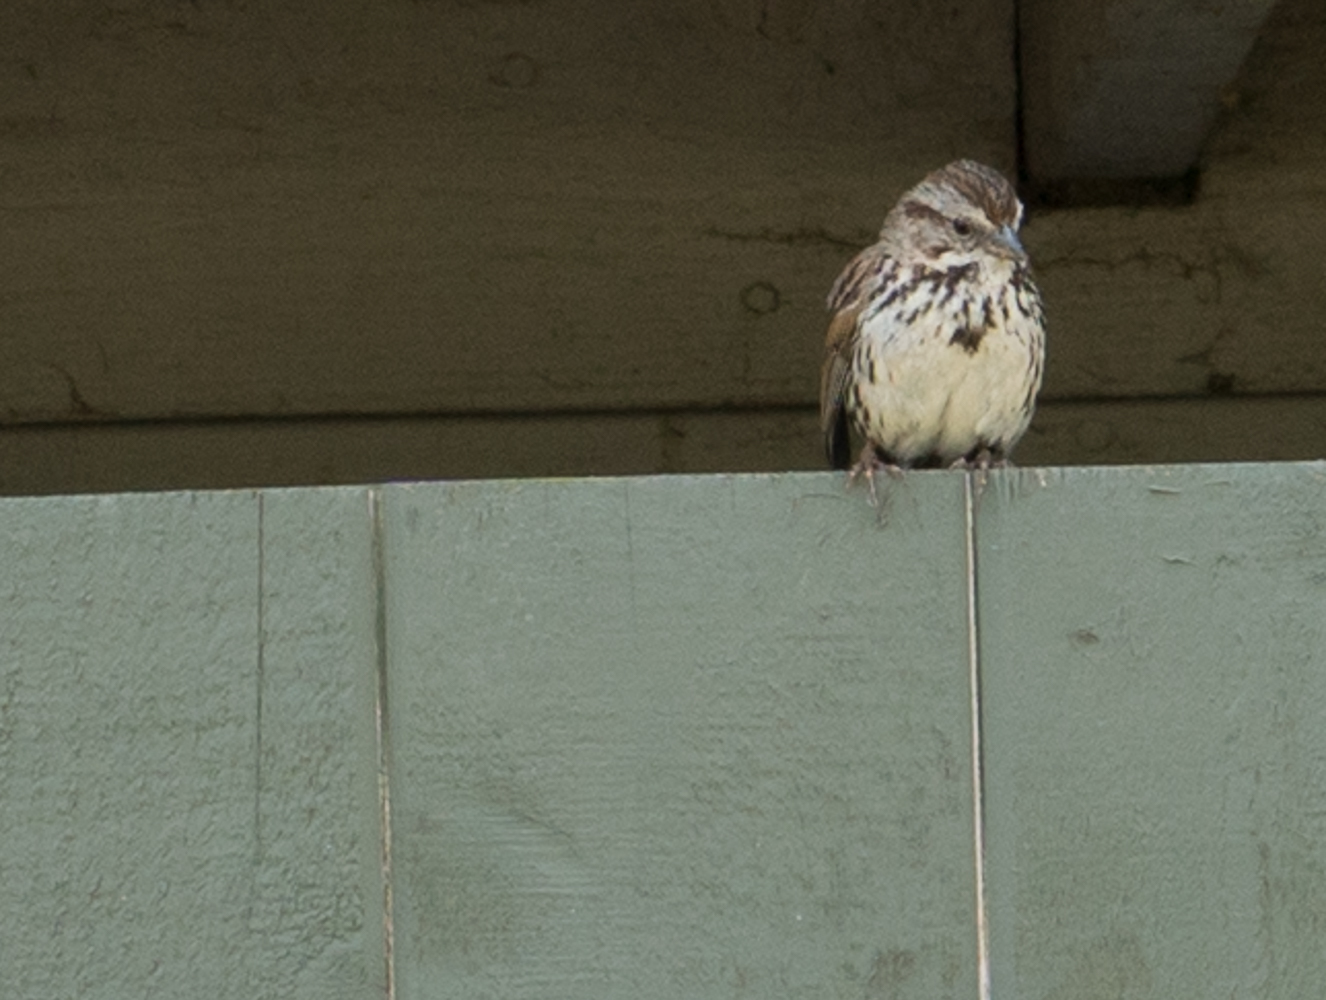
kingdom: Animalia
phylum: Chordata
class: Aves
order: Passeriformes
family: Passerellidae
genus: Melospiza
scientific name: Melospiza melodia
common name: Song sparrow
